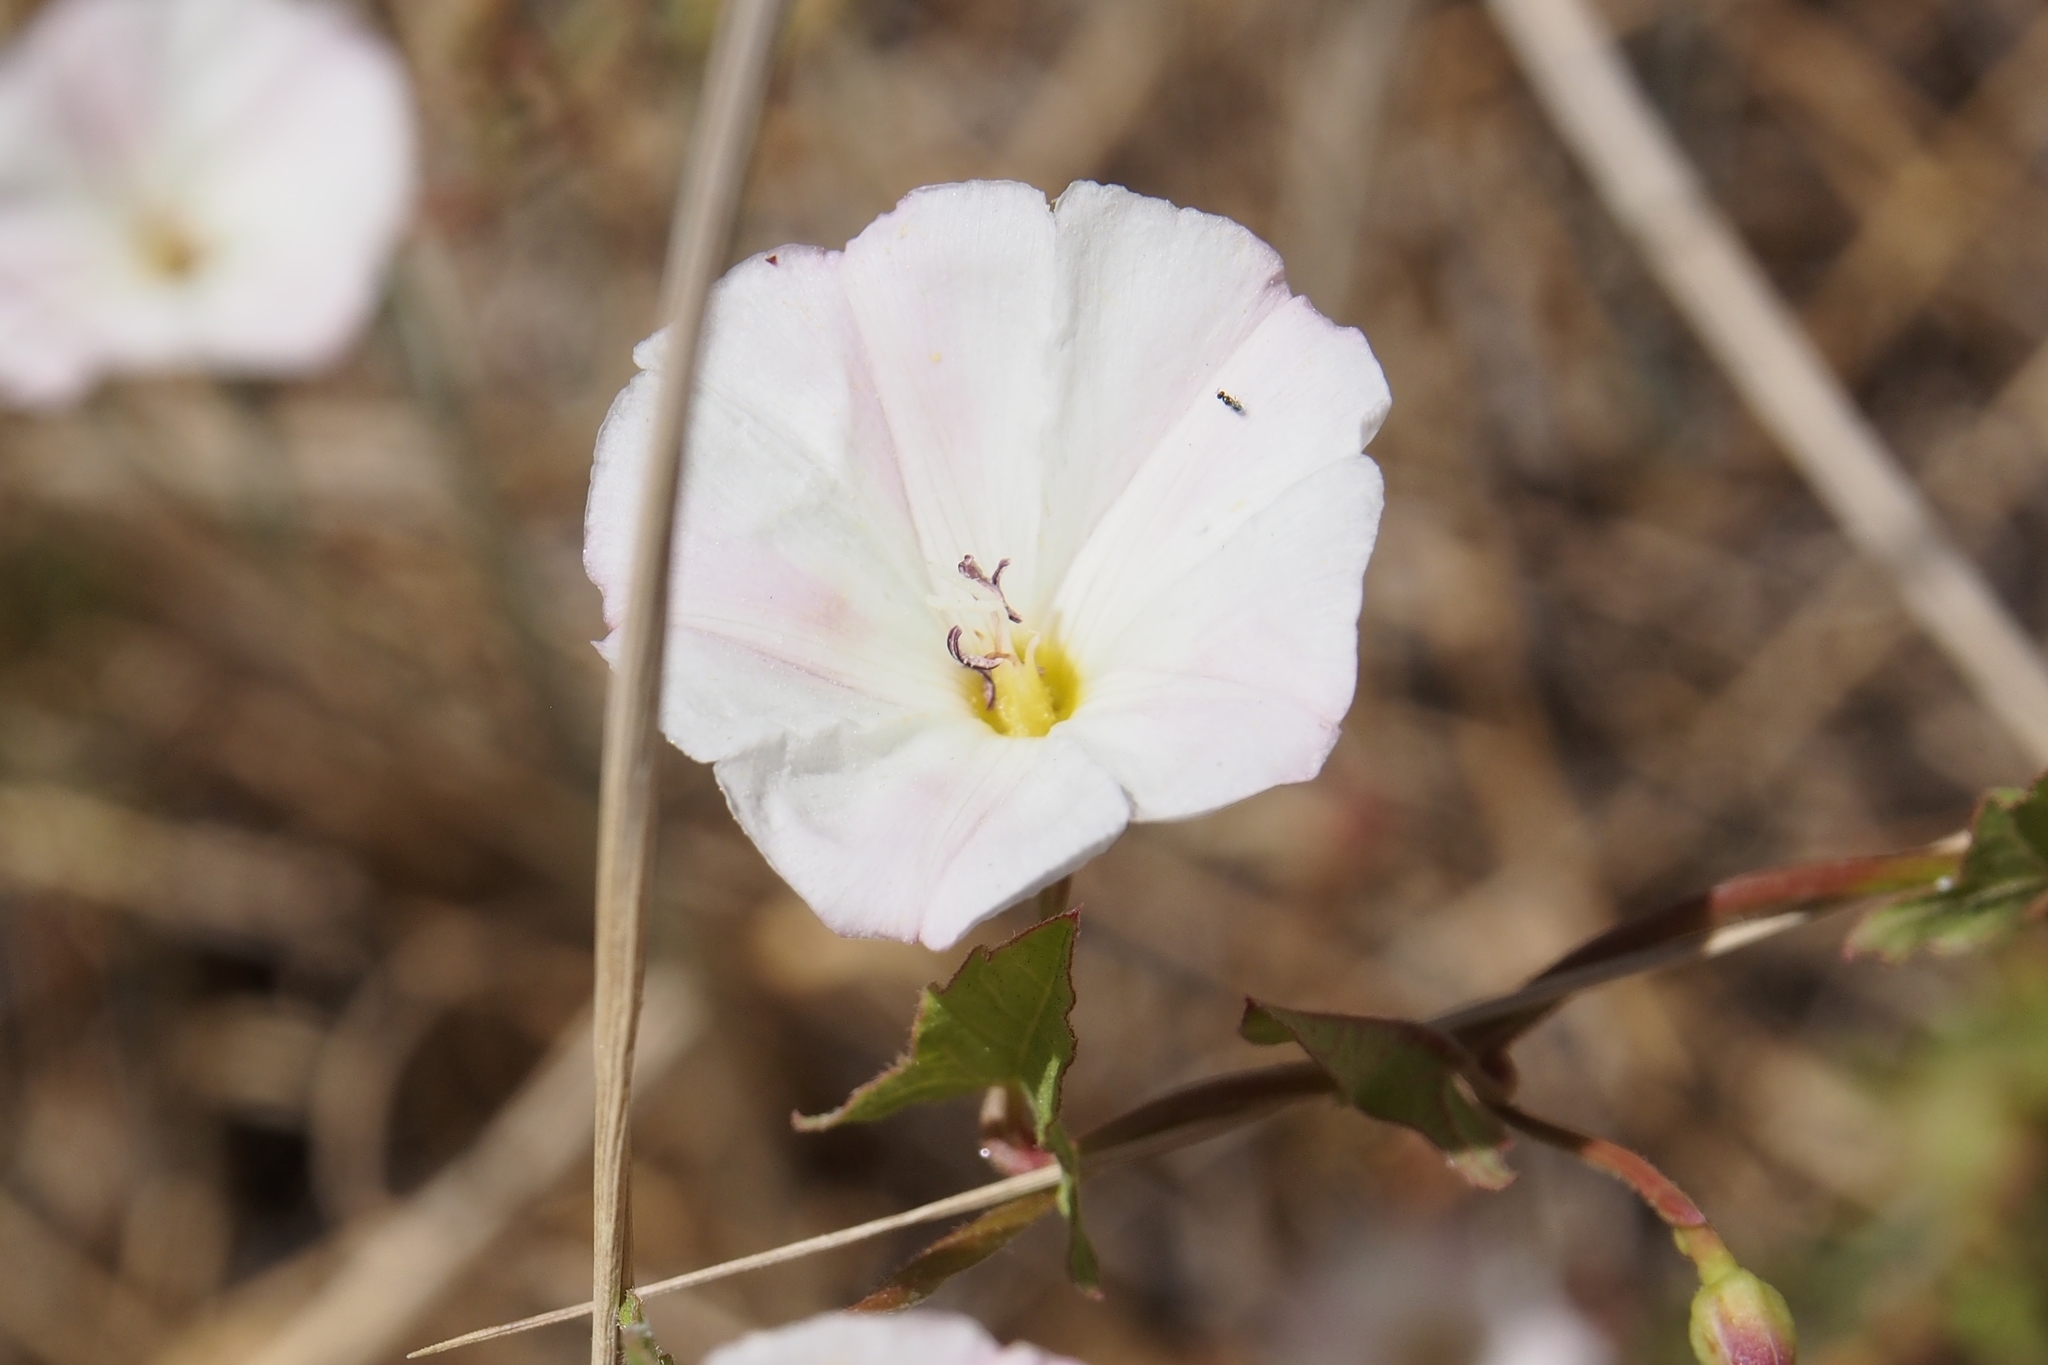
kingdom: Plantae
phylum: Tracheophyta
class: Magnoliopsida
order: Solanales
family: Convolvulaceae
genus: Convolvulus
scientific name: Convolvulus arvensis
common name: Field bindweed
